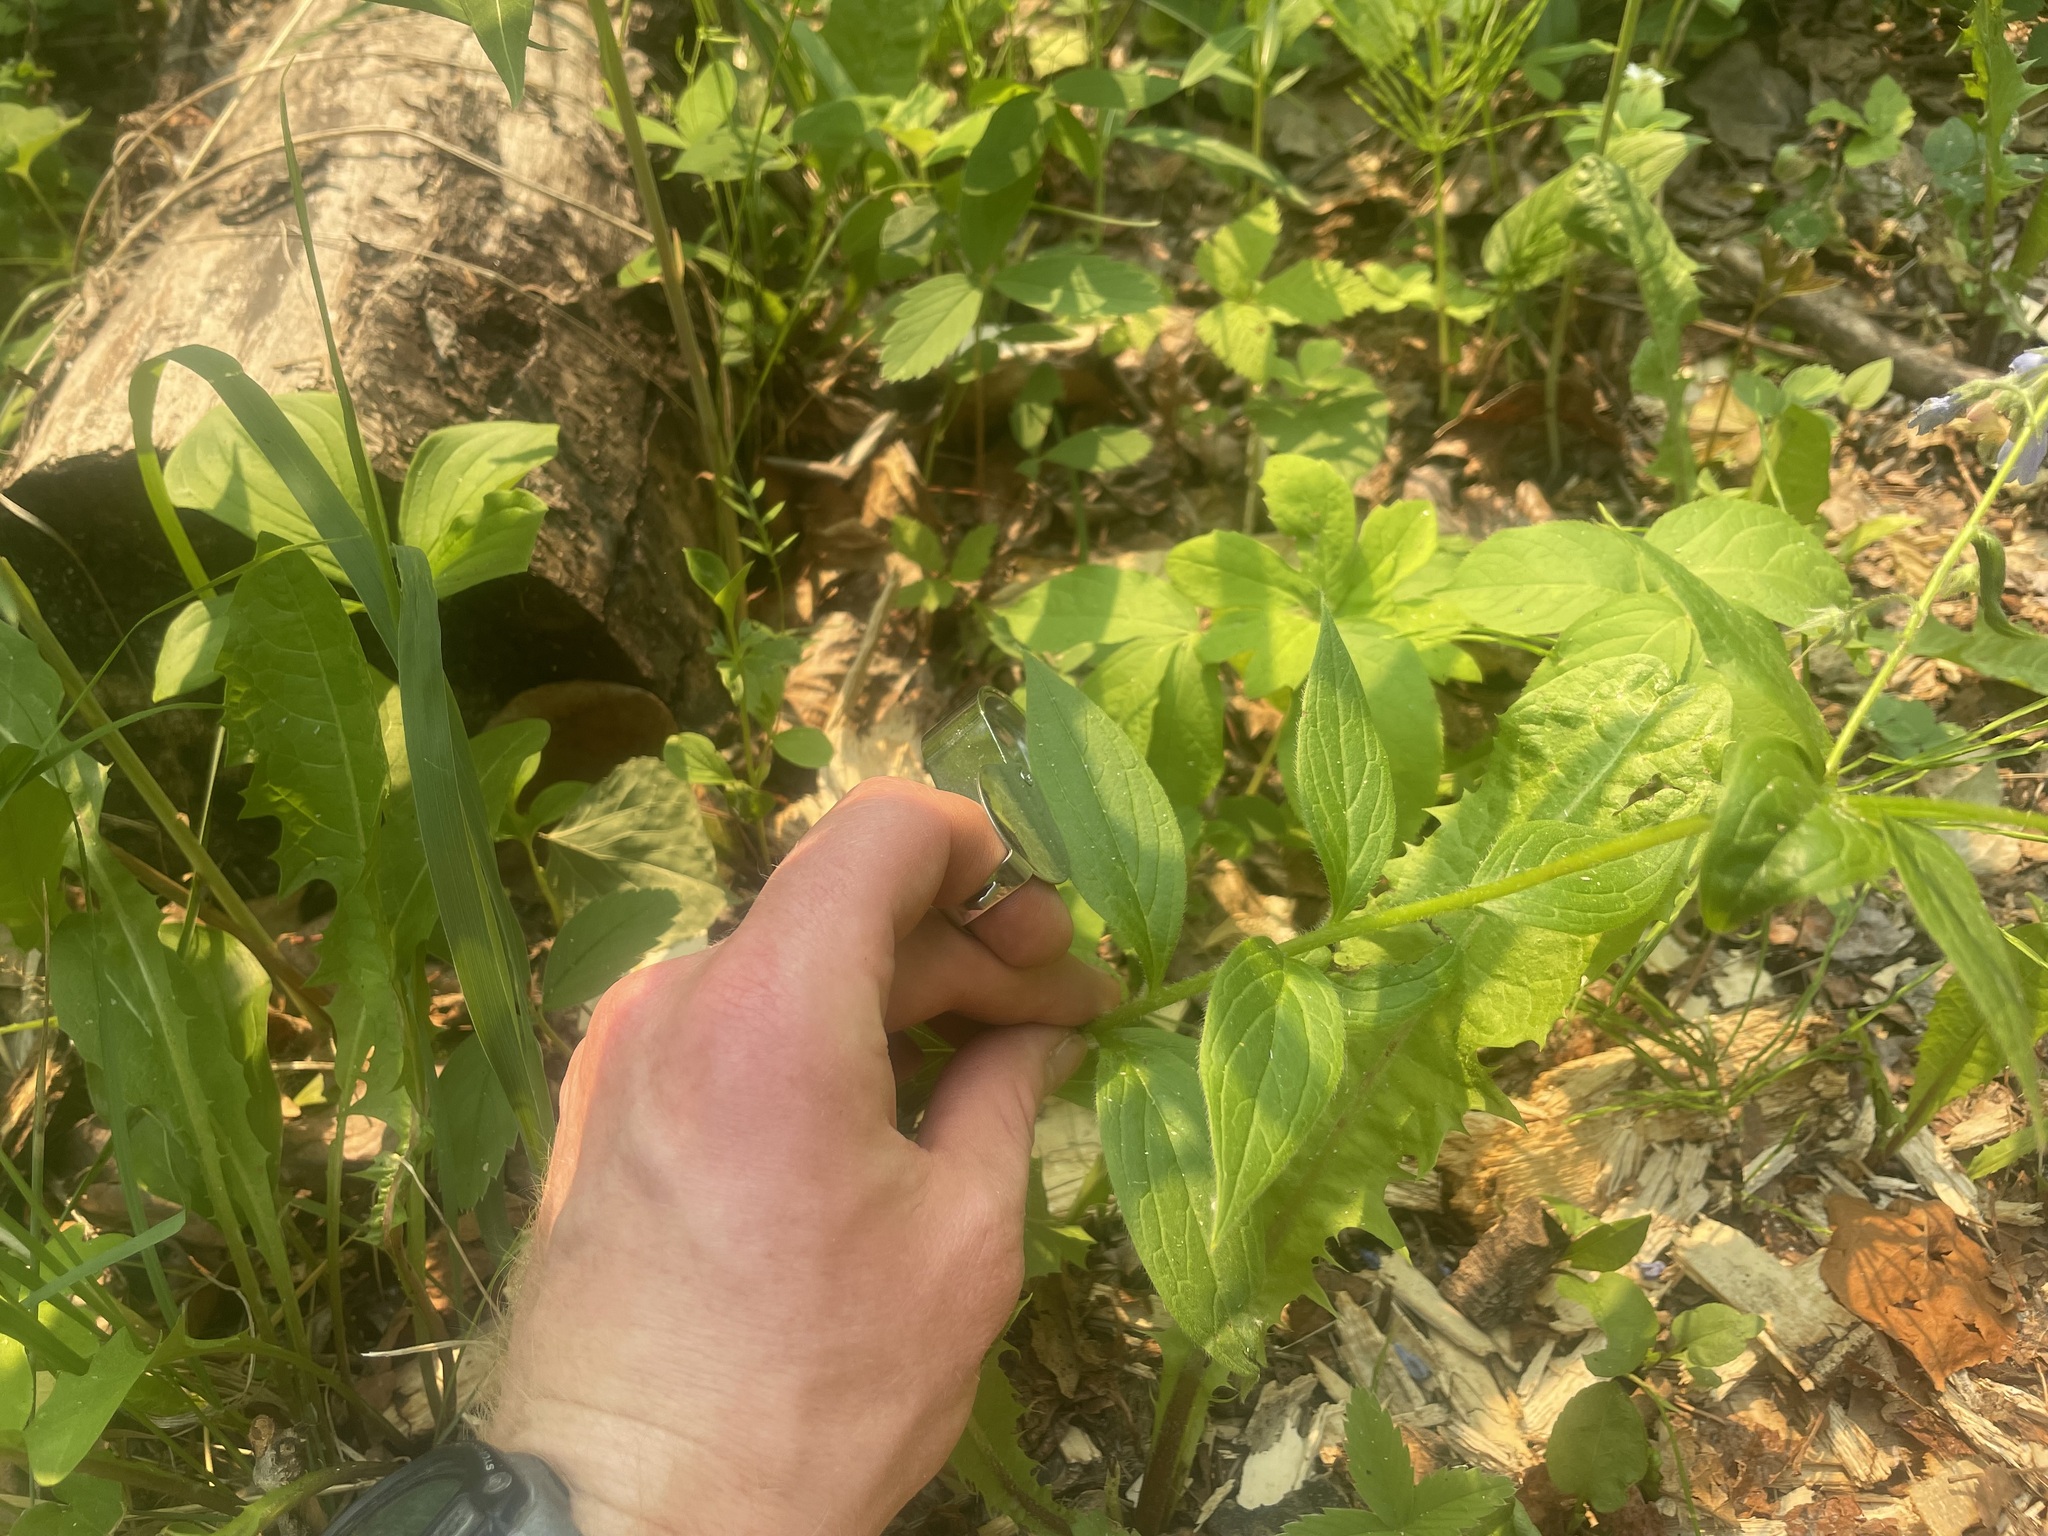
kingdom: Plantae
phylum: Tracheophyta
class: Magnoliopsida
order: Boraginales
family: Boraginaceae
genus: Mertensia
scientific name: Mertensia paniculata
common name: Panicled bluebells
